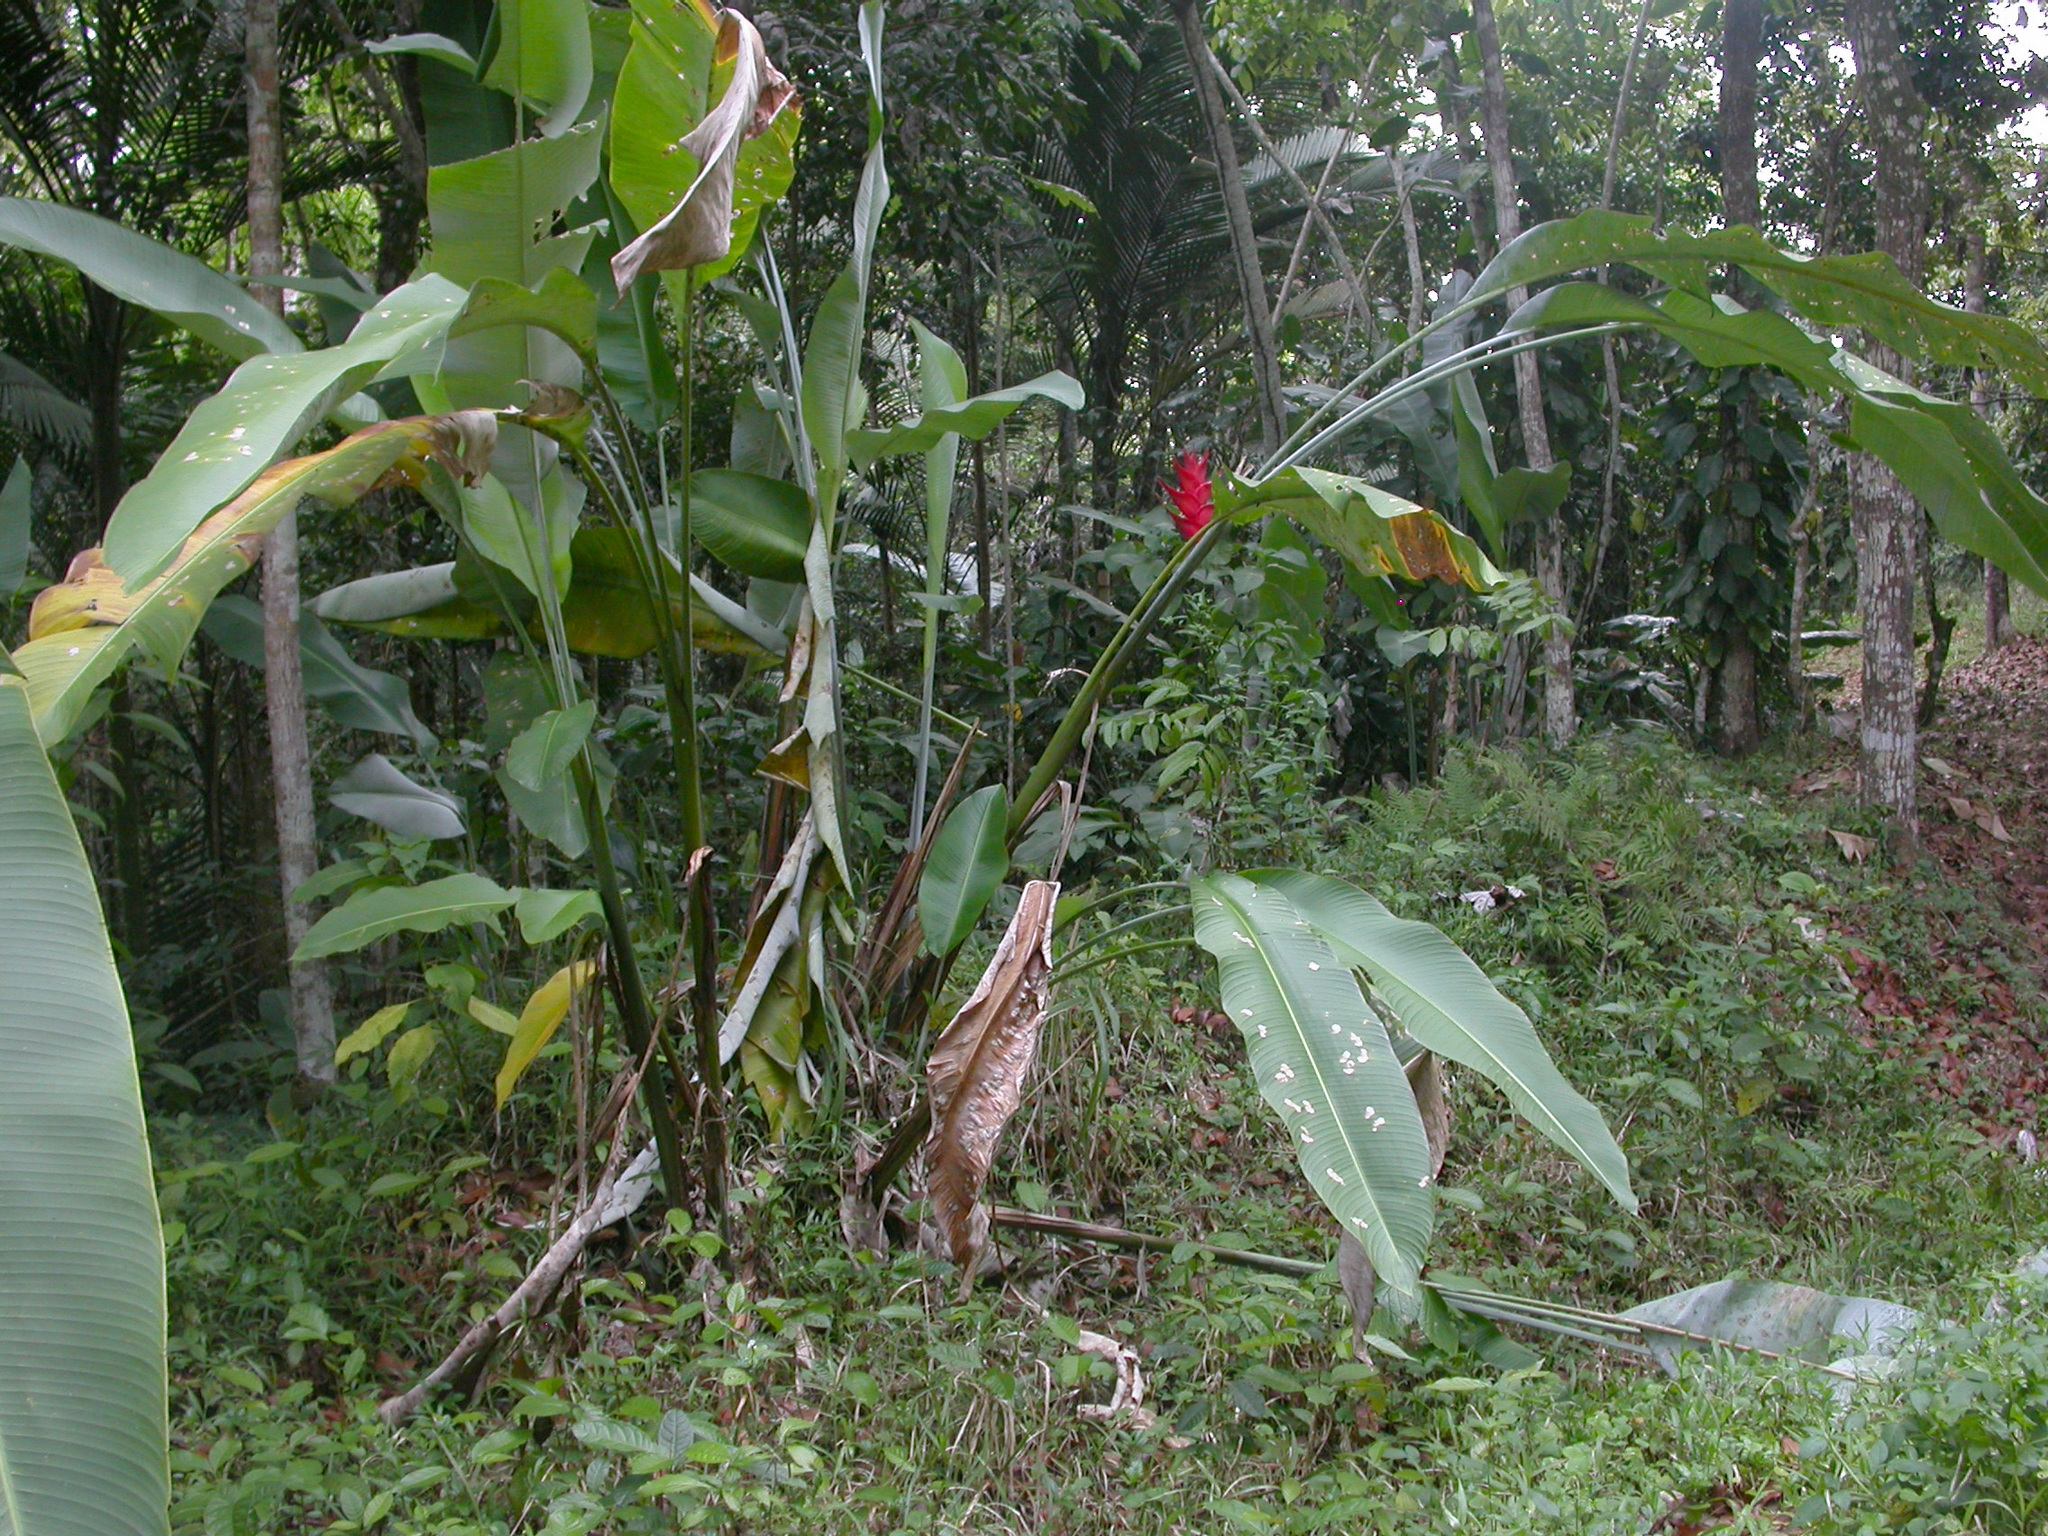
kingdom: Plantae
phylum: Tracheophyta
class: Liliopsida
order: Zingiberales
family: Heliconiaceae
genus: Heliconia
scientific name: Heliconia caribaea
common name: Wild plantain
